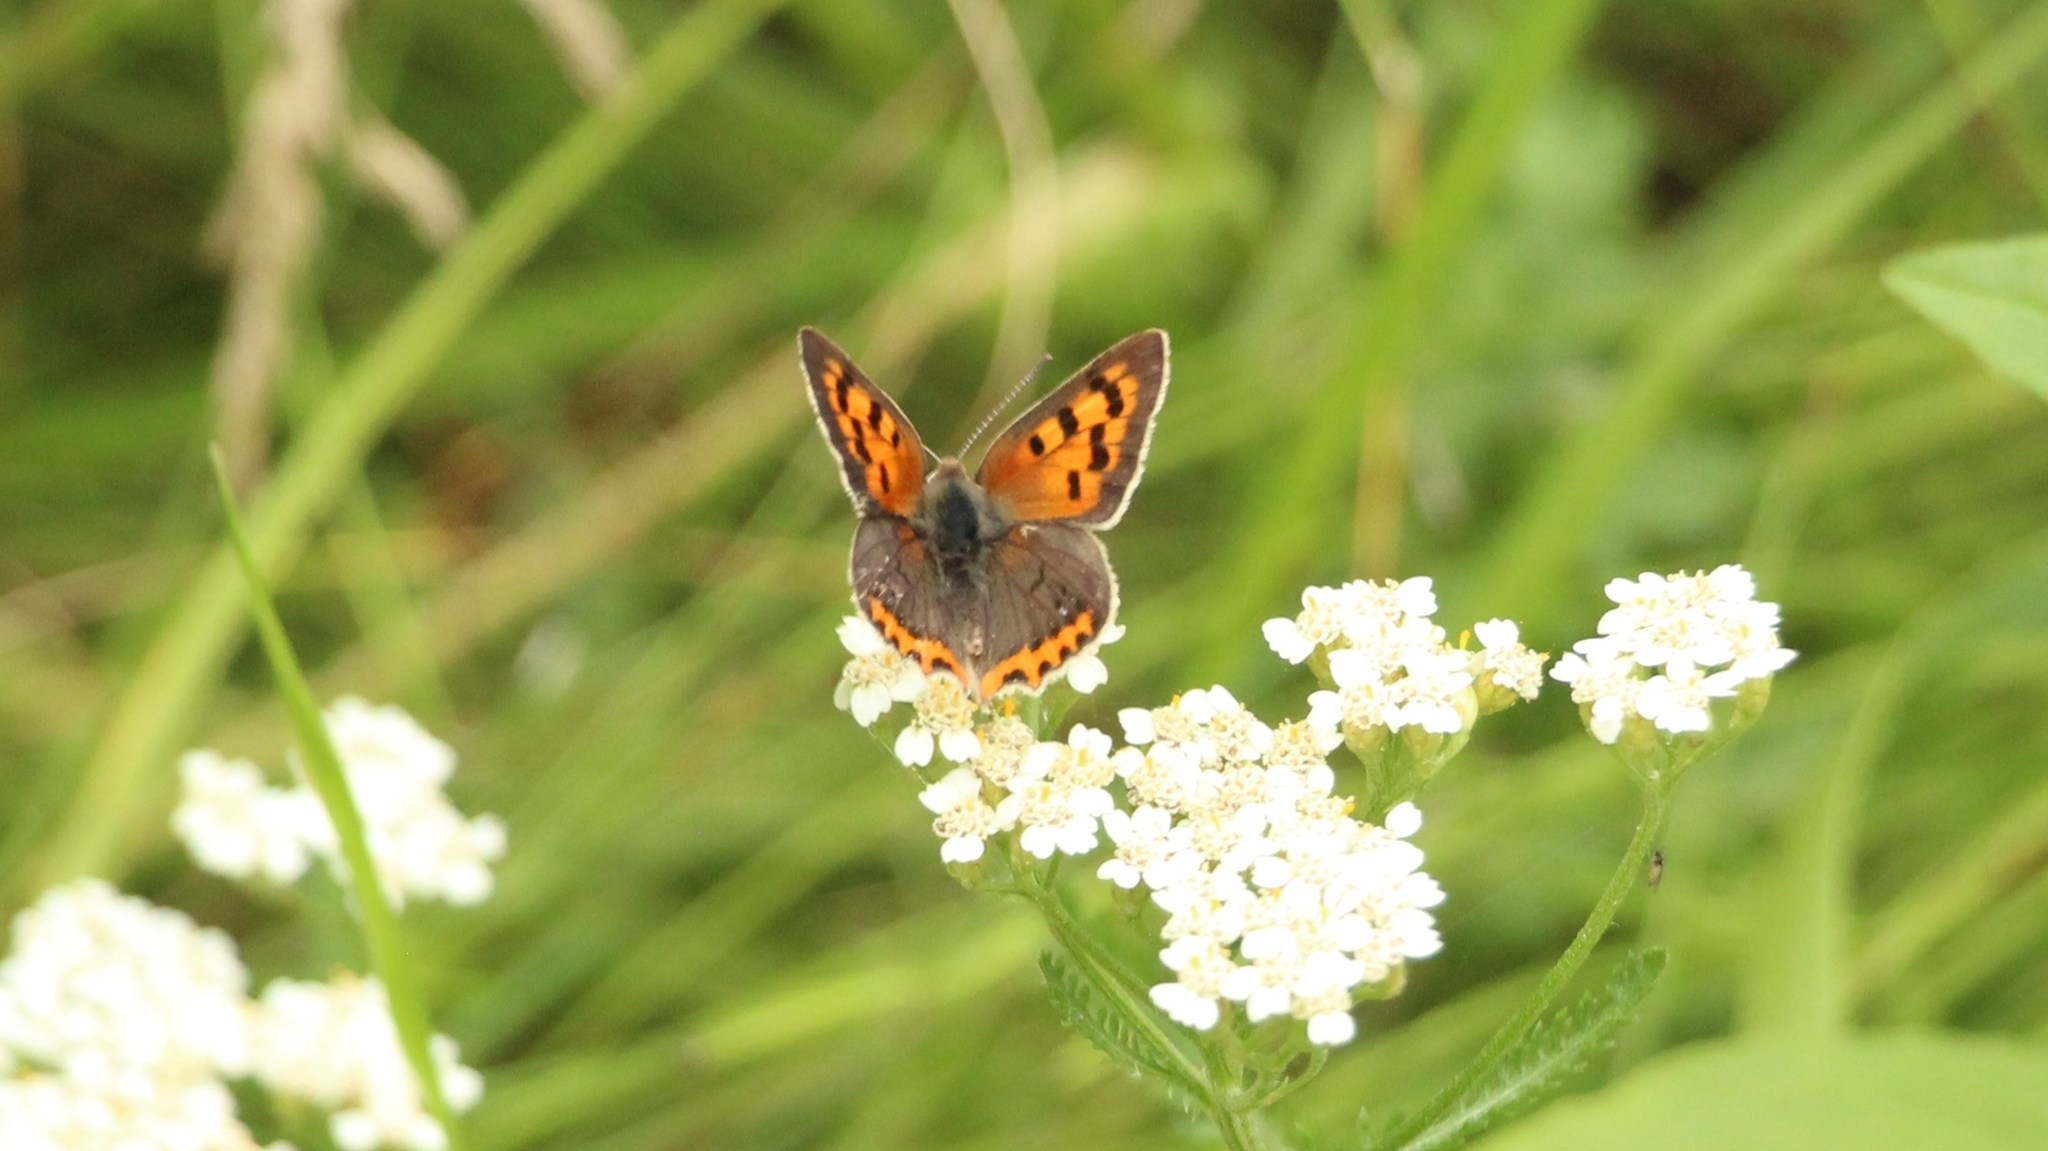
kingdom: Animalia
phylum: Arthropoda
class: Insecta
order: Lepidoptera
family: Lycaenidae
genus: Lycaena
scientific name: Lycaena phlaeas
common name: Small copper
